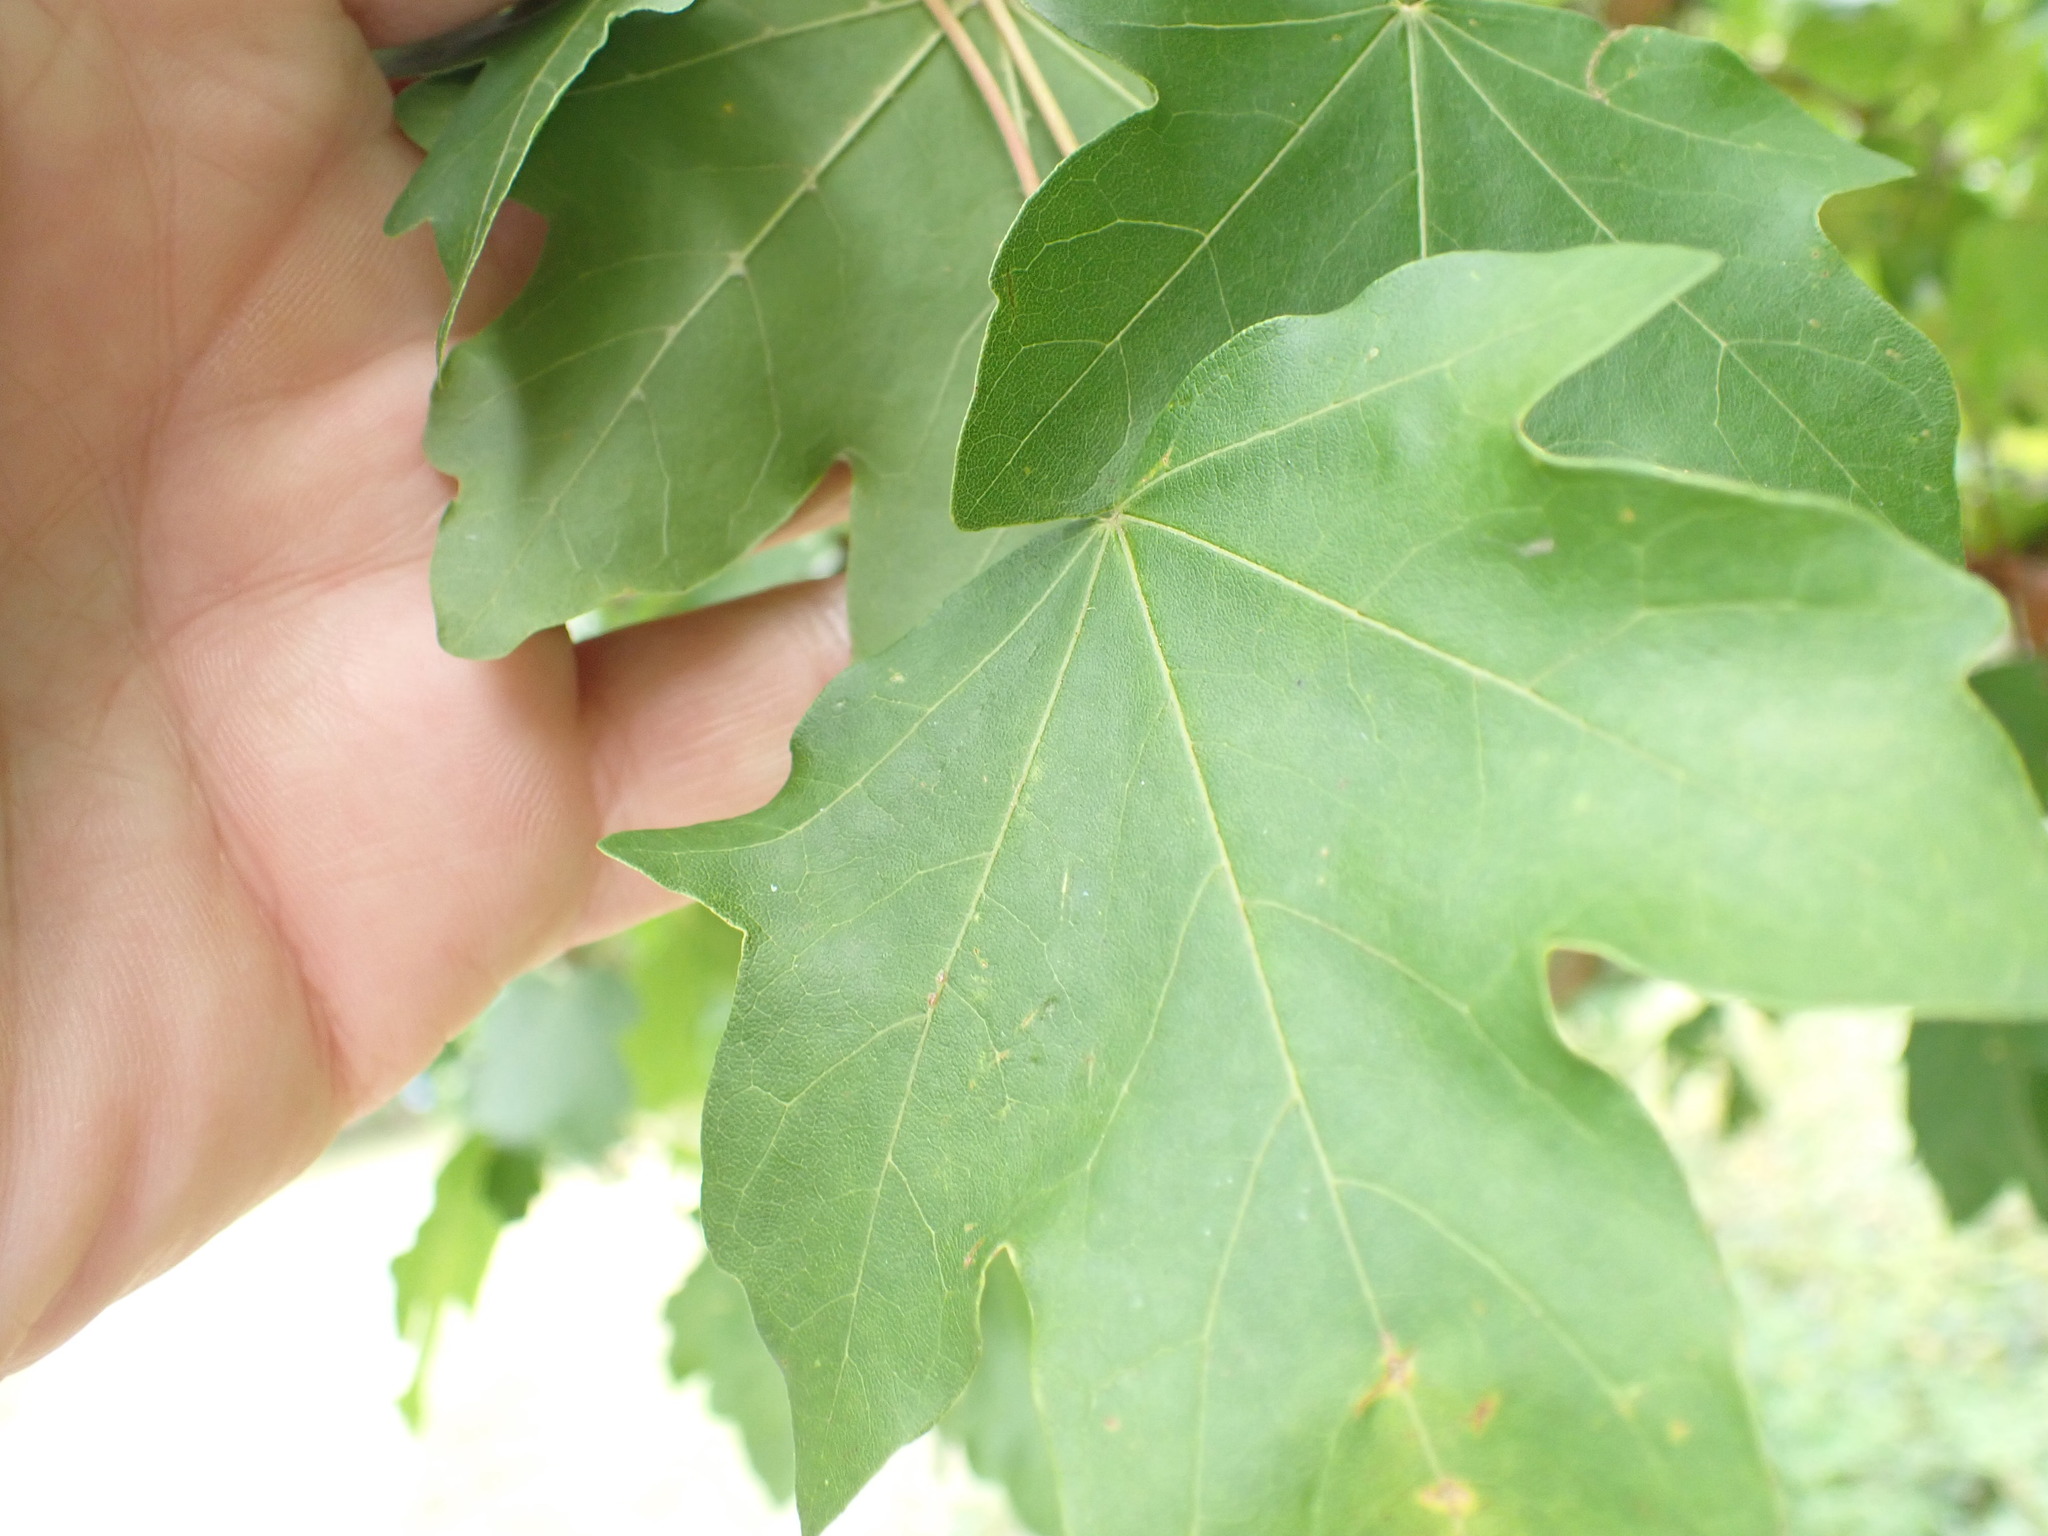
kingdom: Plantae
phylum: Tracheophyta
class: Magnoliopsida
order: Sapindales
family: Sapindaceae
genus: Acer
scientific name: Acer campestre
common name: Field maple
